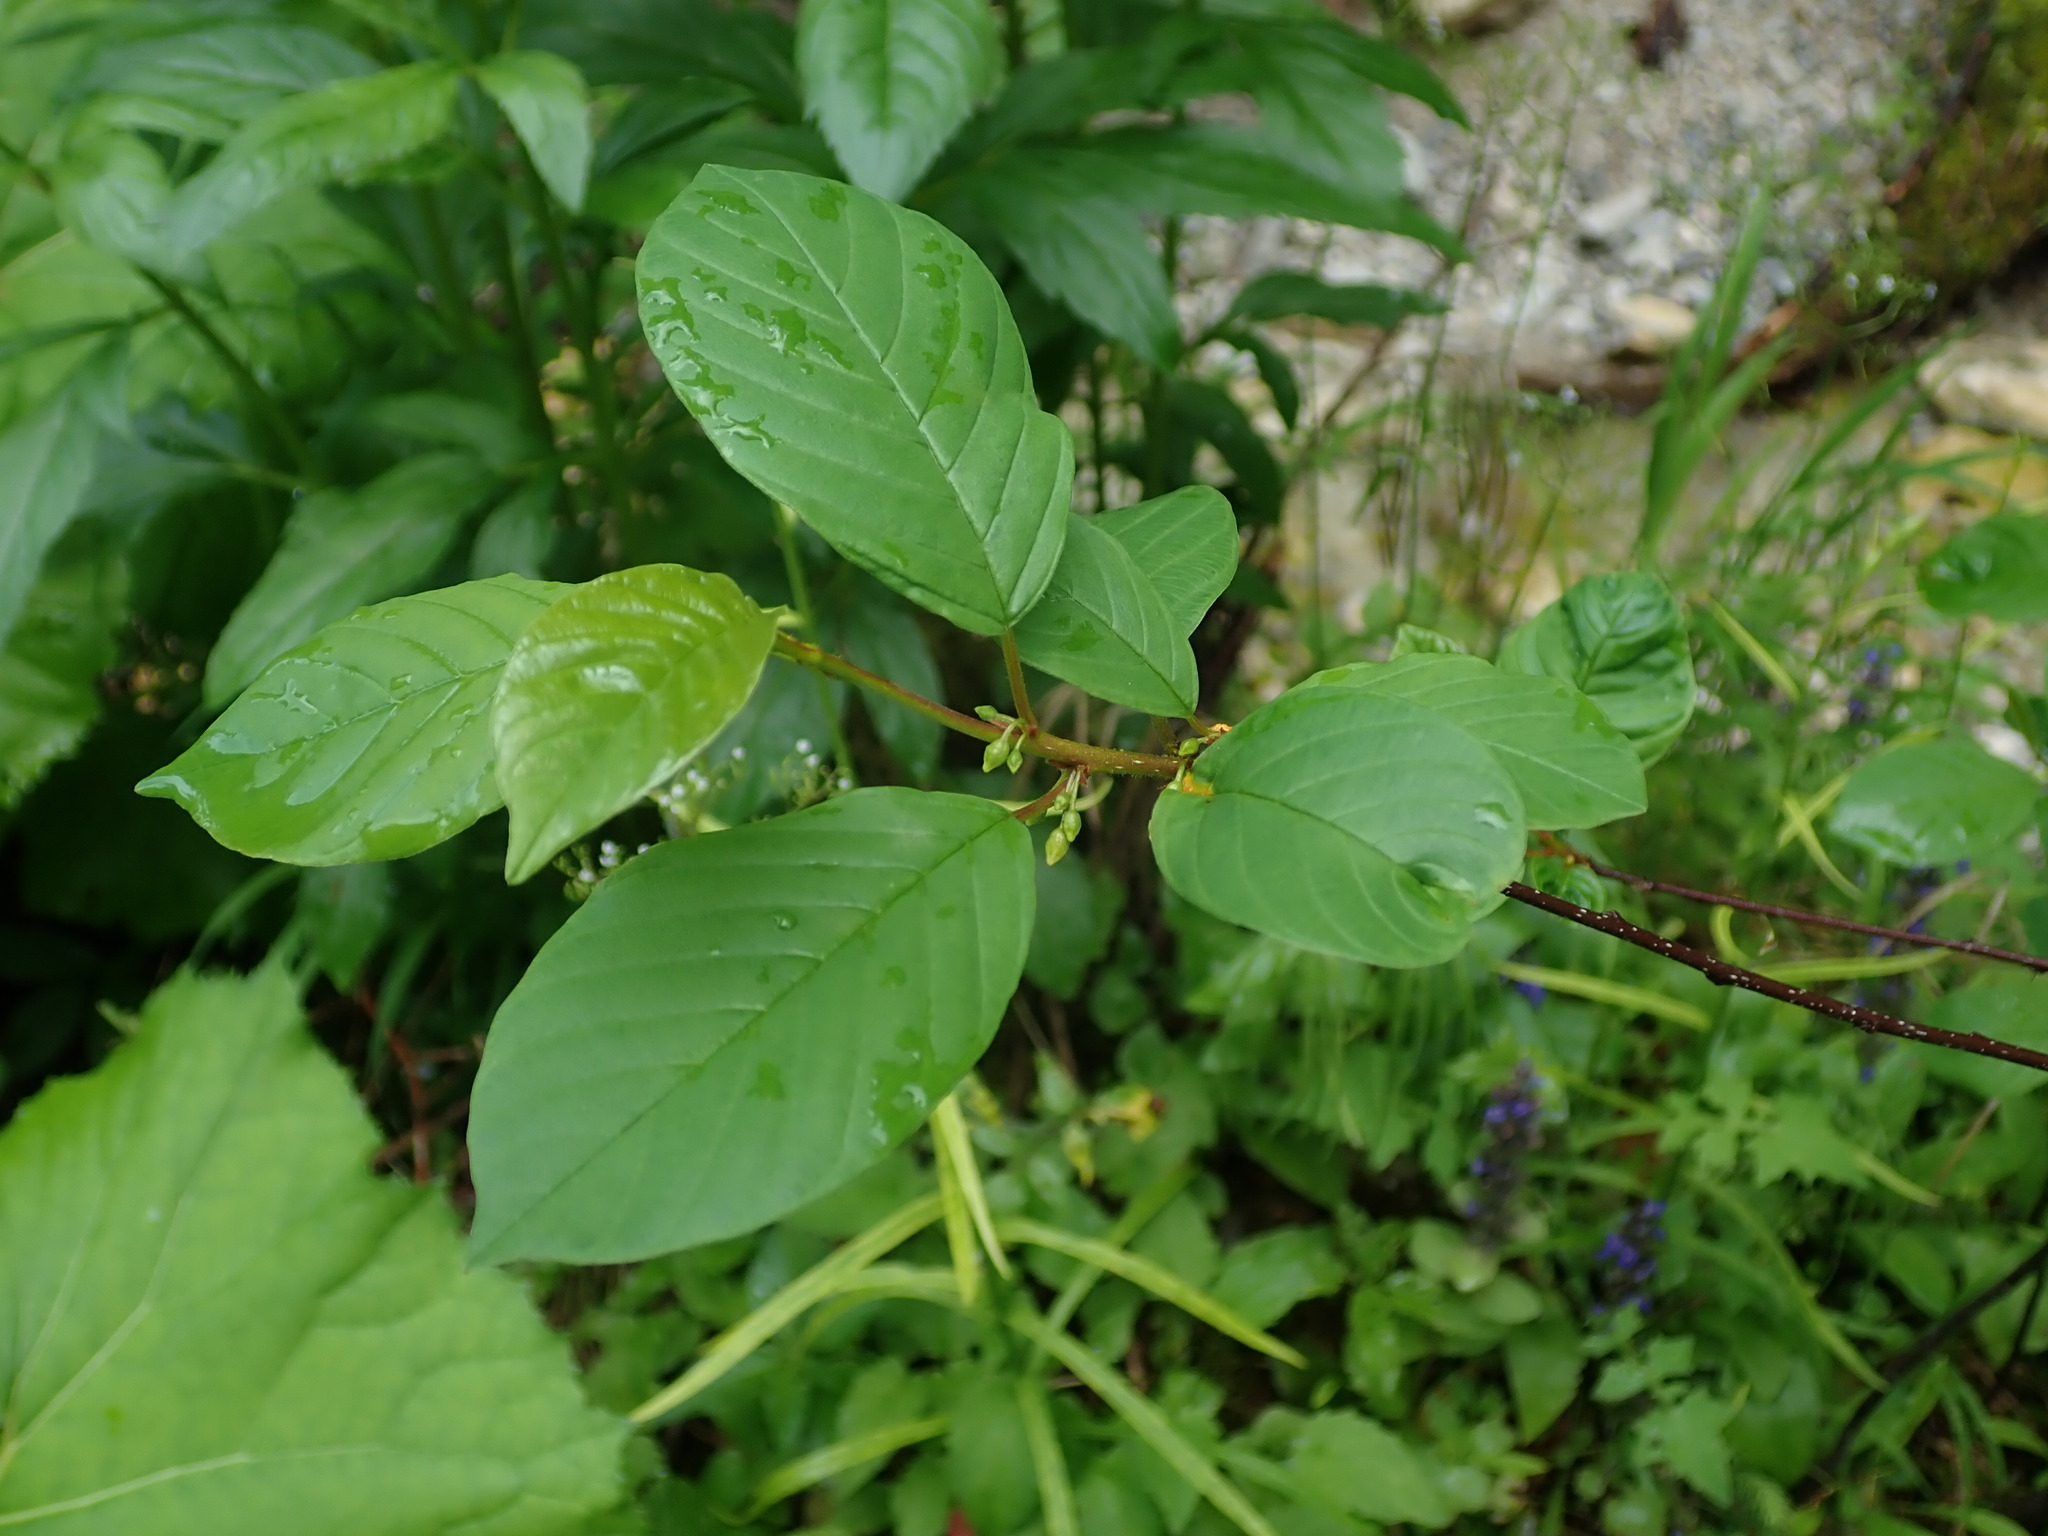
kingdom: Plantae
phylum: Tracheophyta
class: Magnoliopsida
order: Rosales
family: Rhamnaceae
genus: Frangula
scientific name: Frangula alnus
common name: Alder buckthorn
